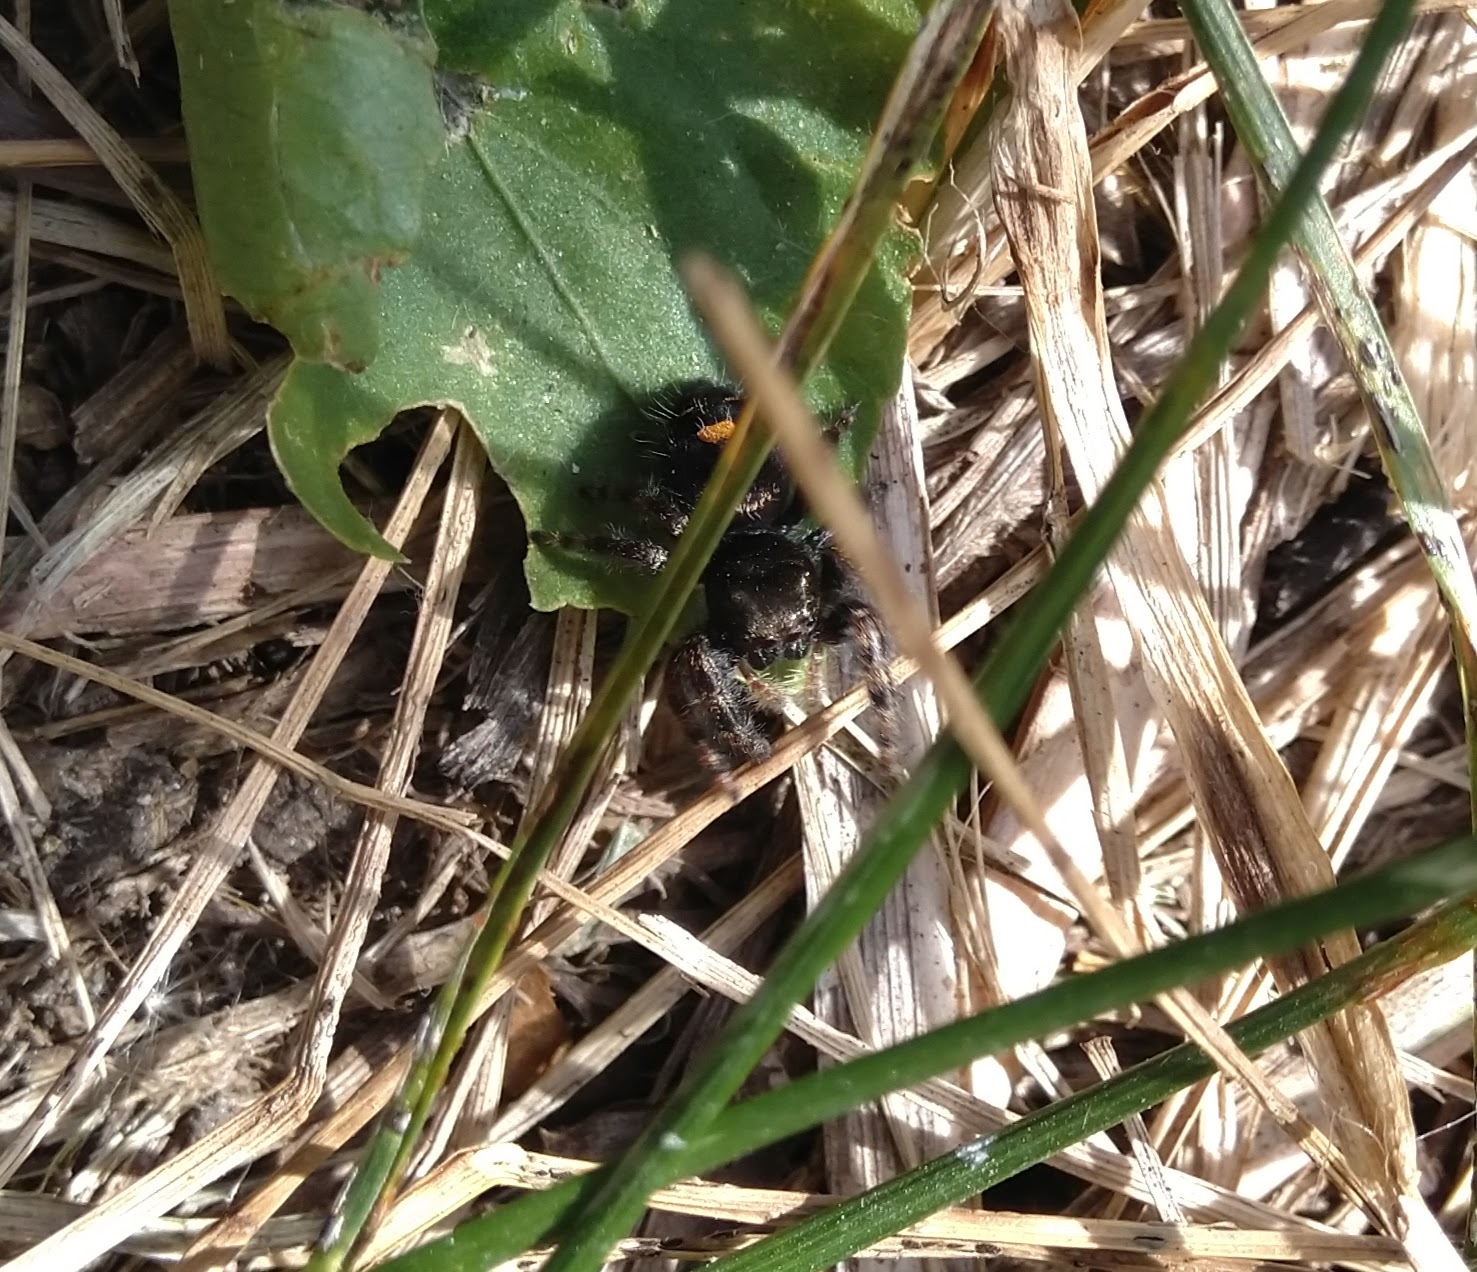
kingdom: Animalia
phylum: Arthropoda
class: Arachnida
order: Araneae
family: Salticidae
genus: Phidippus
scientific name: Phidippus audax
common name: Bold jumper
